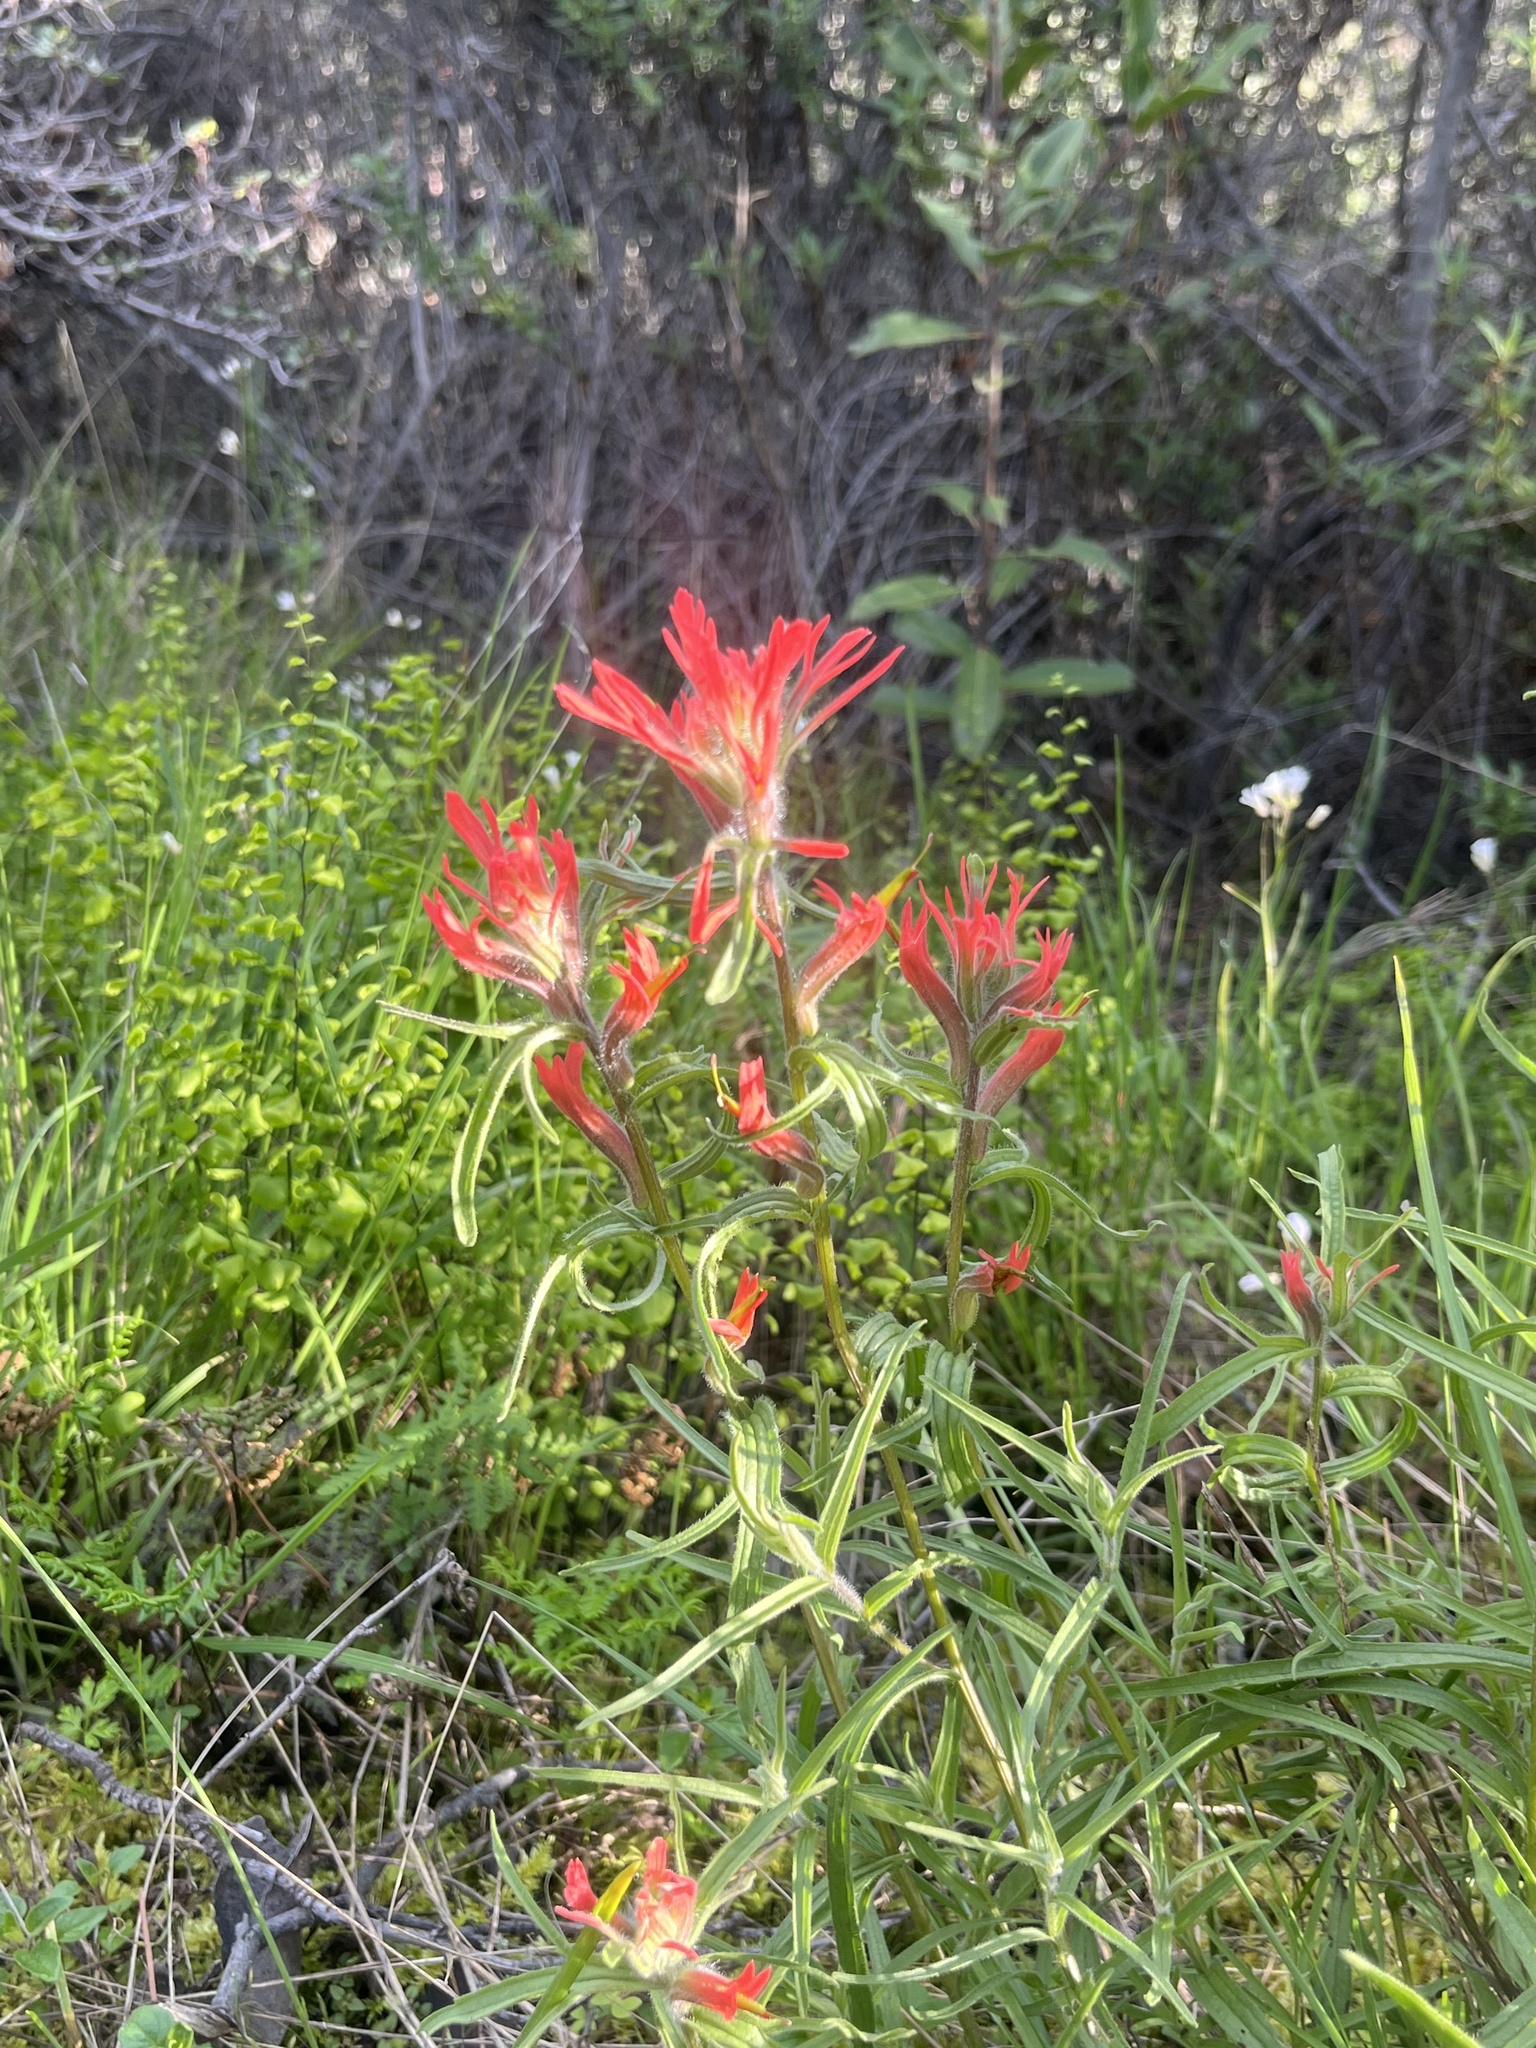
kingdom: Plantae
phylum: Tracheophyta
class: Magnoliopsida
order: Lamiales
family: Orobanchaceae
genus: Castilleja
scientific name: Castilleja affinis
